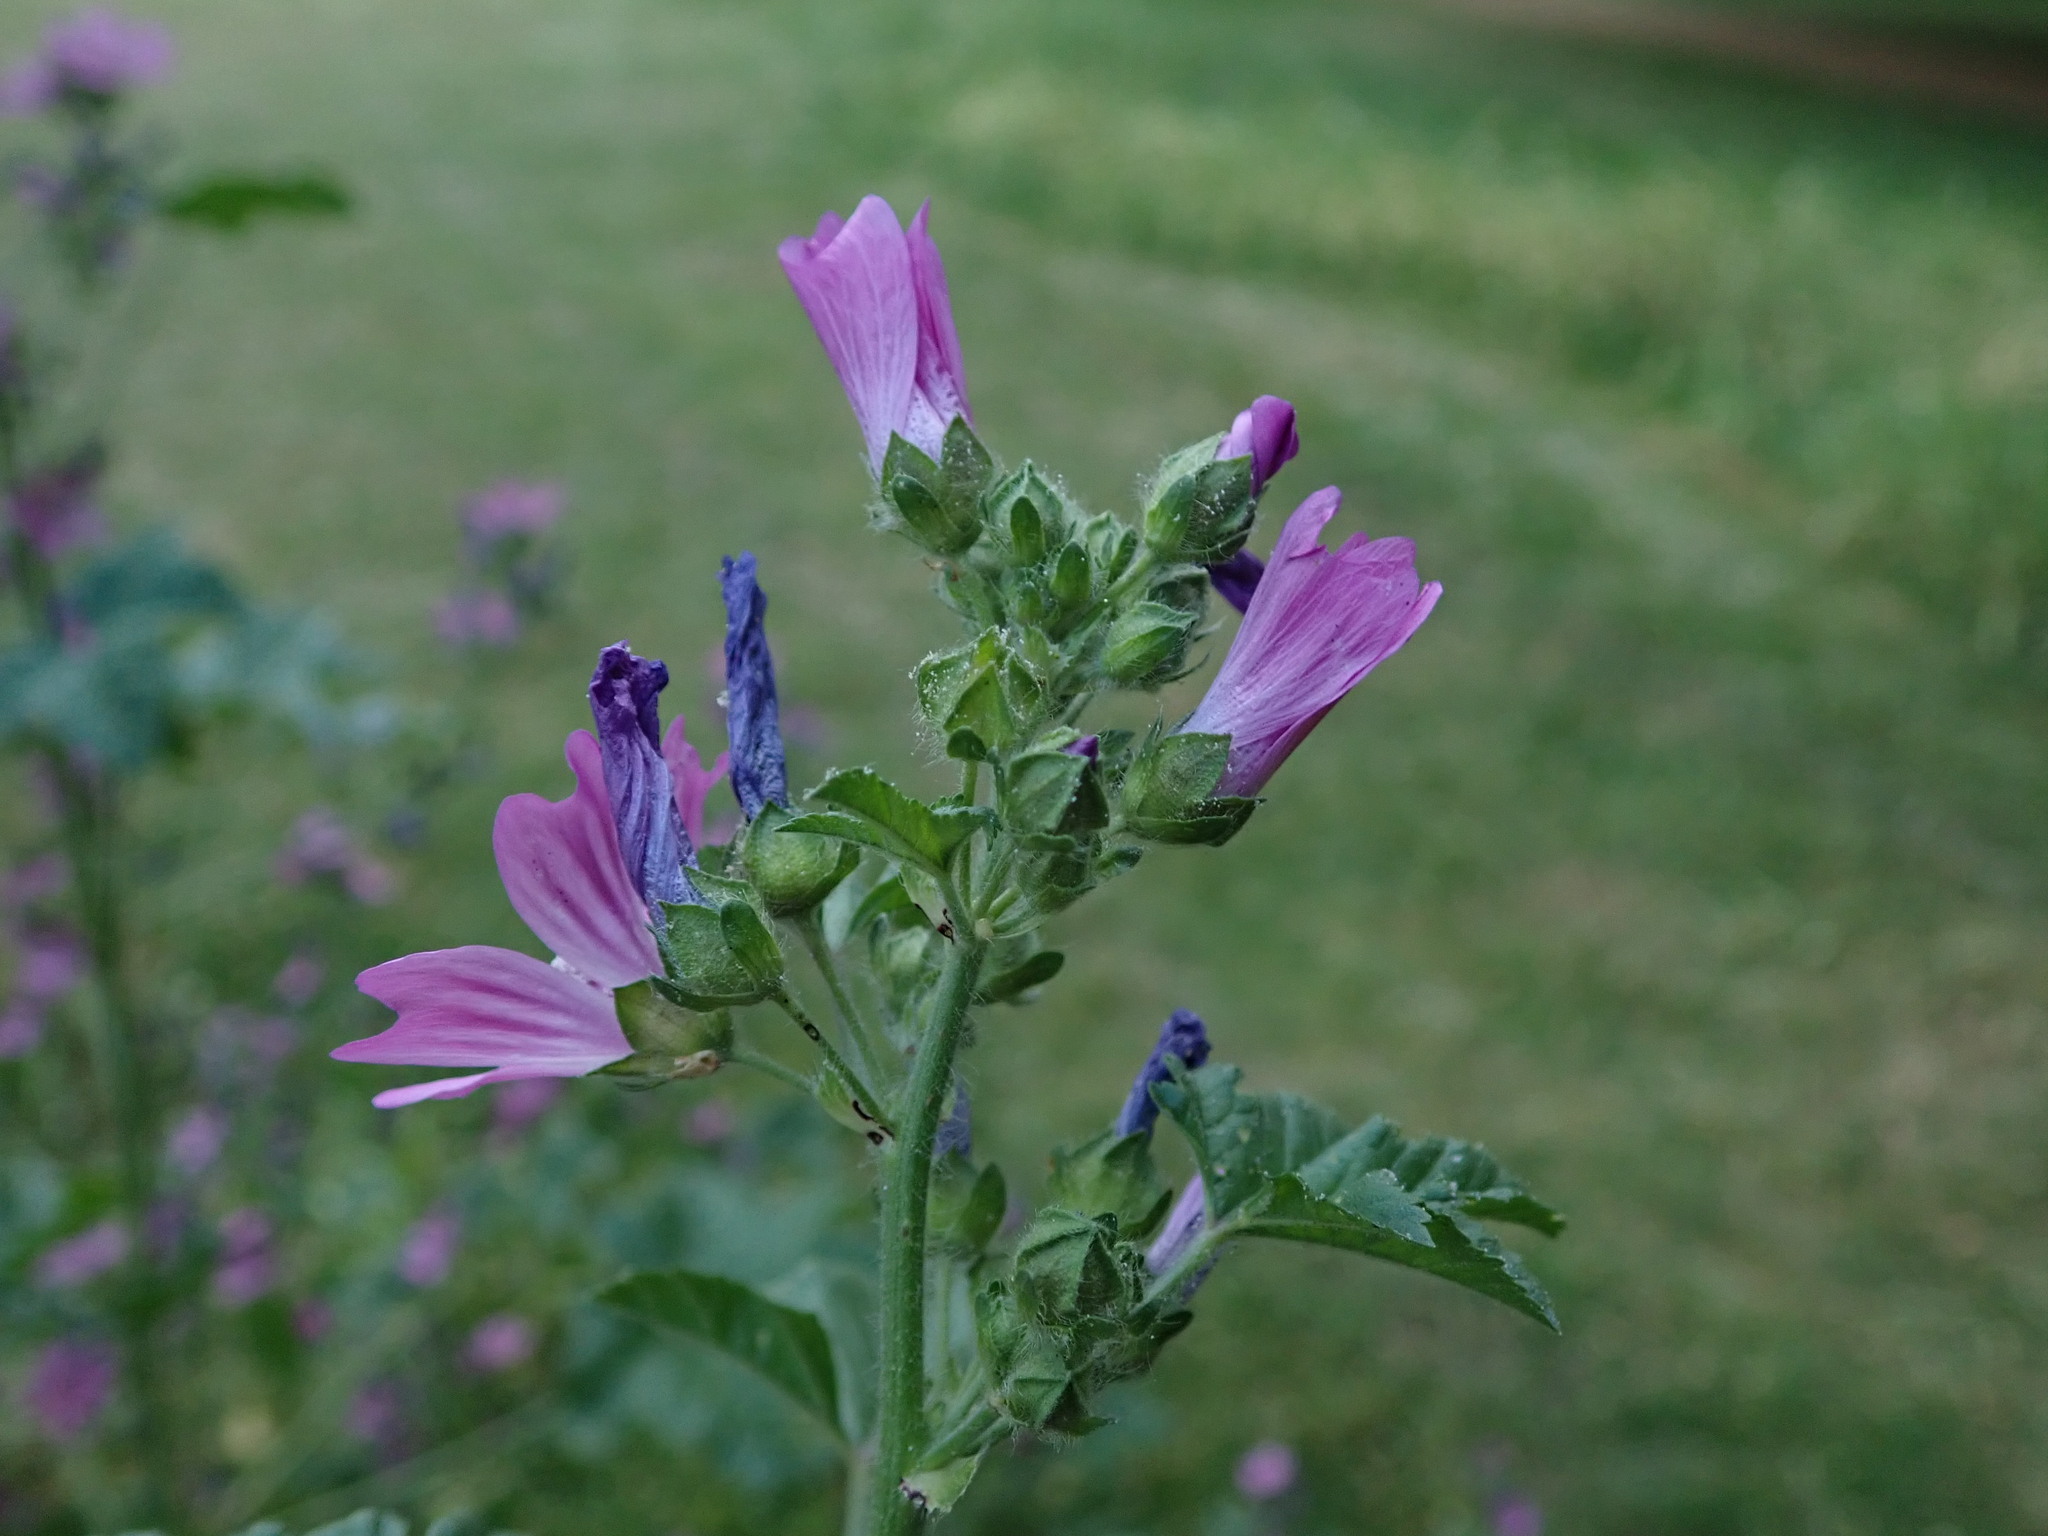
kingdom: Plantae
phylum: Tracheophyta
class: Magnoliopsida
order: Malvales
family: Malvaceae
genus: Malva
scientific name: Malva sylvestris
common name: Common mallow
